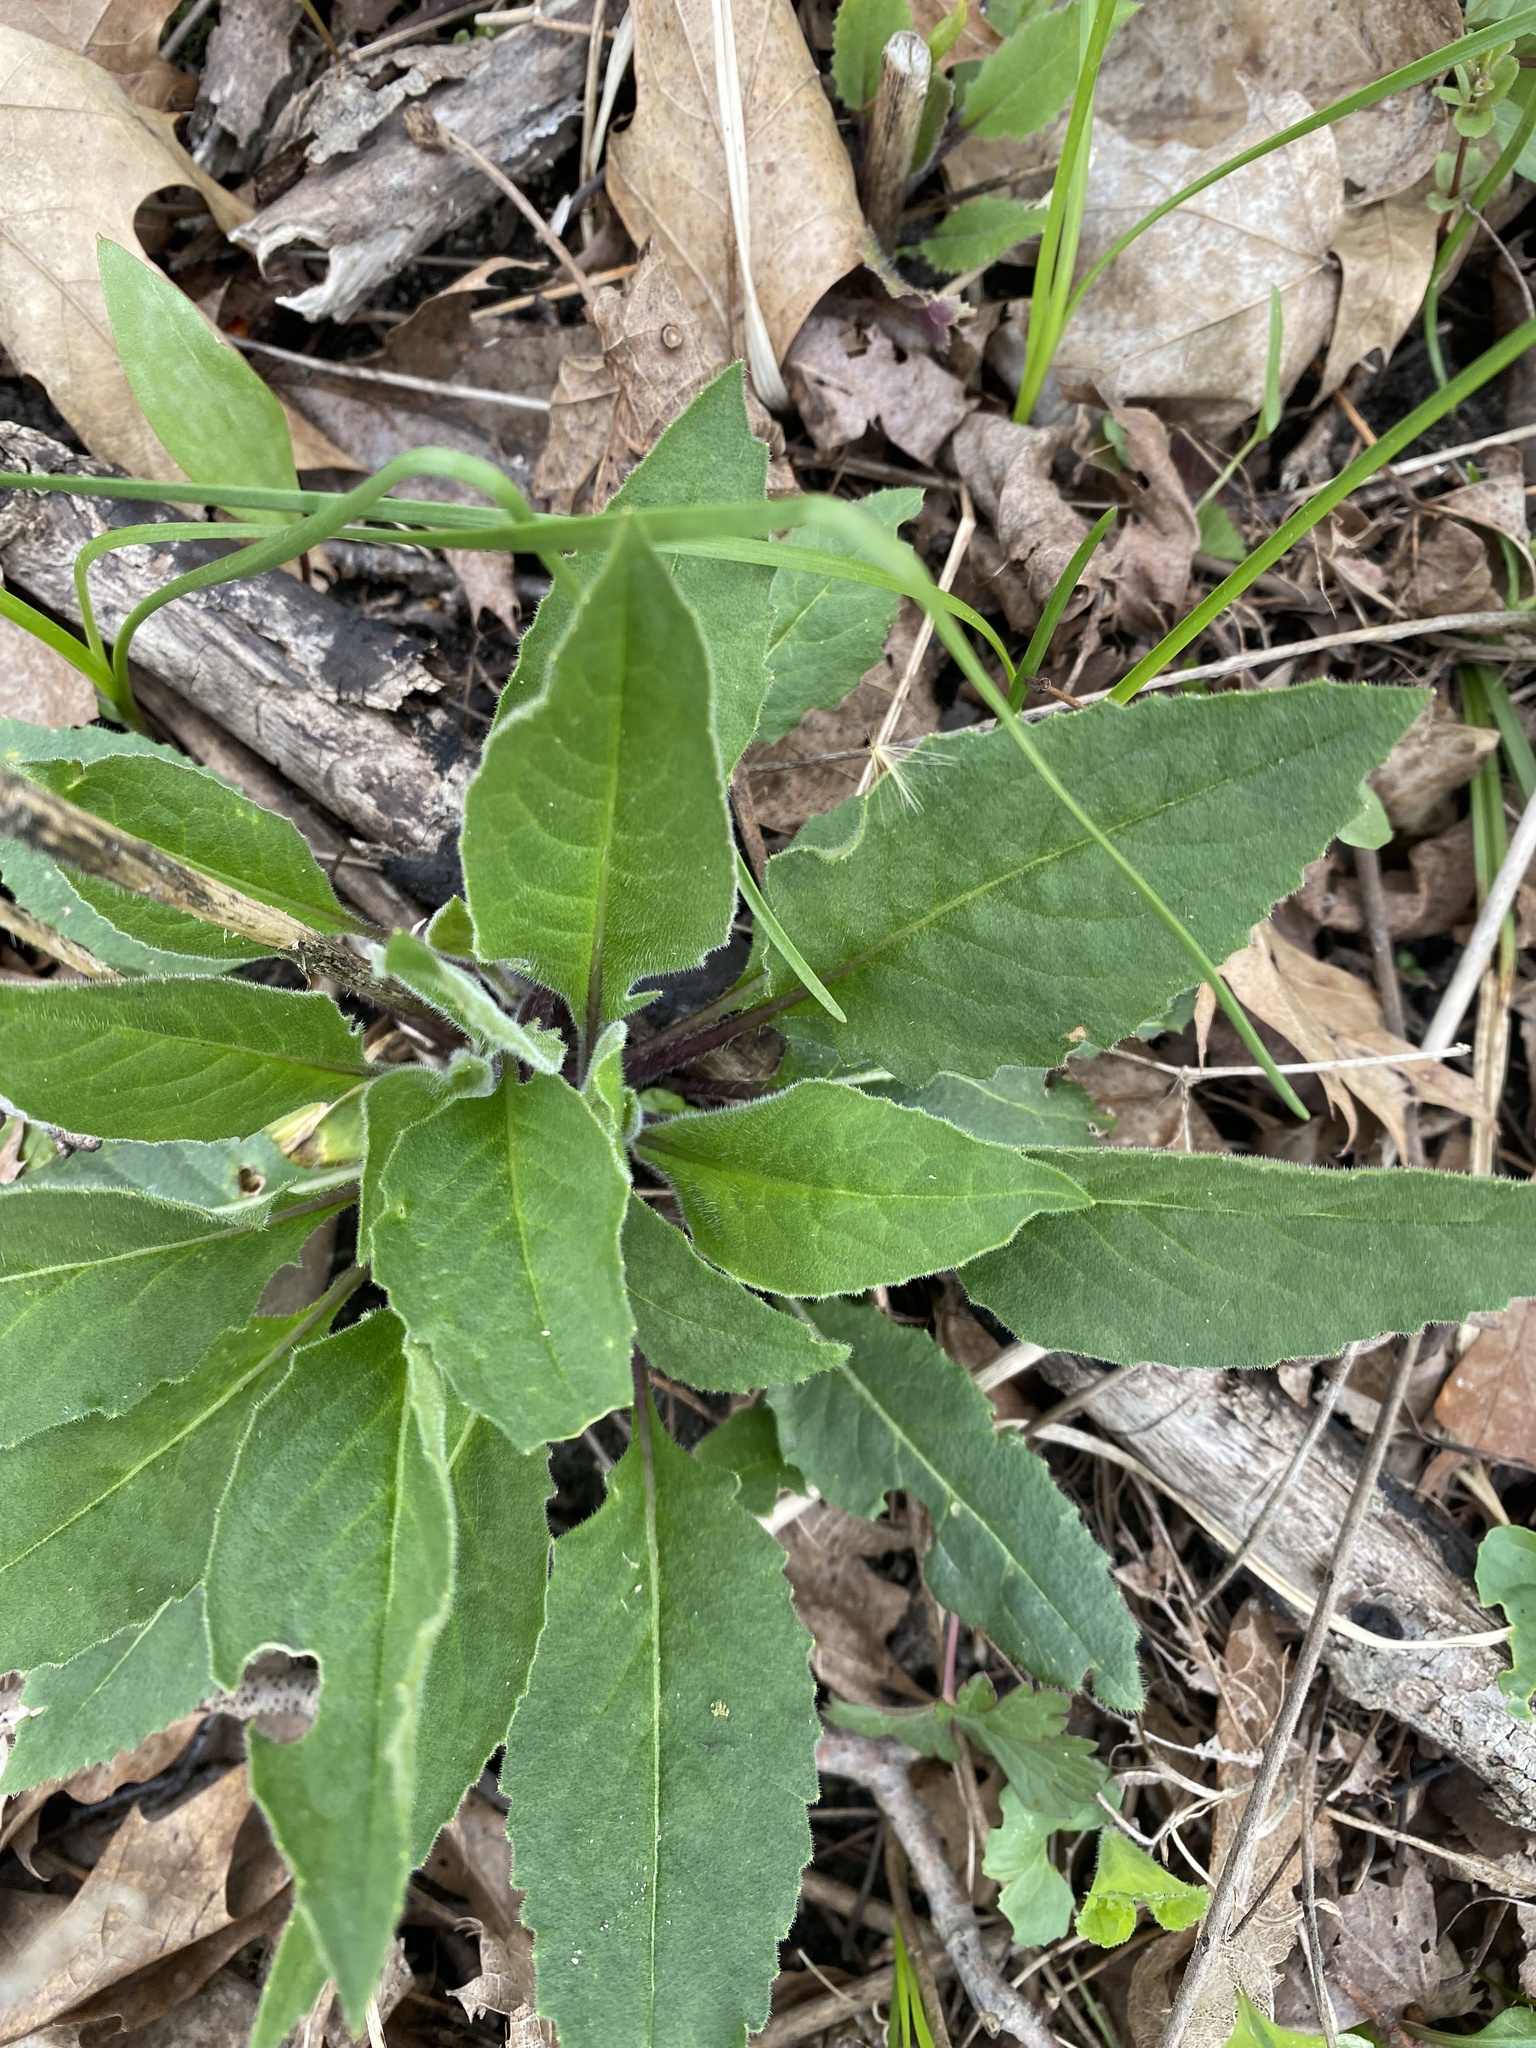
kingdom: Plantae
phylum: Tracheophyta
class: Magnoliopsida
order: Brassicales
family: Brassicaceae
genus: Hesperis
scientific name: Hesperis matronalis
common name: Dame's-violet
